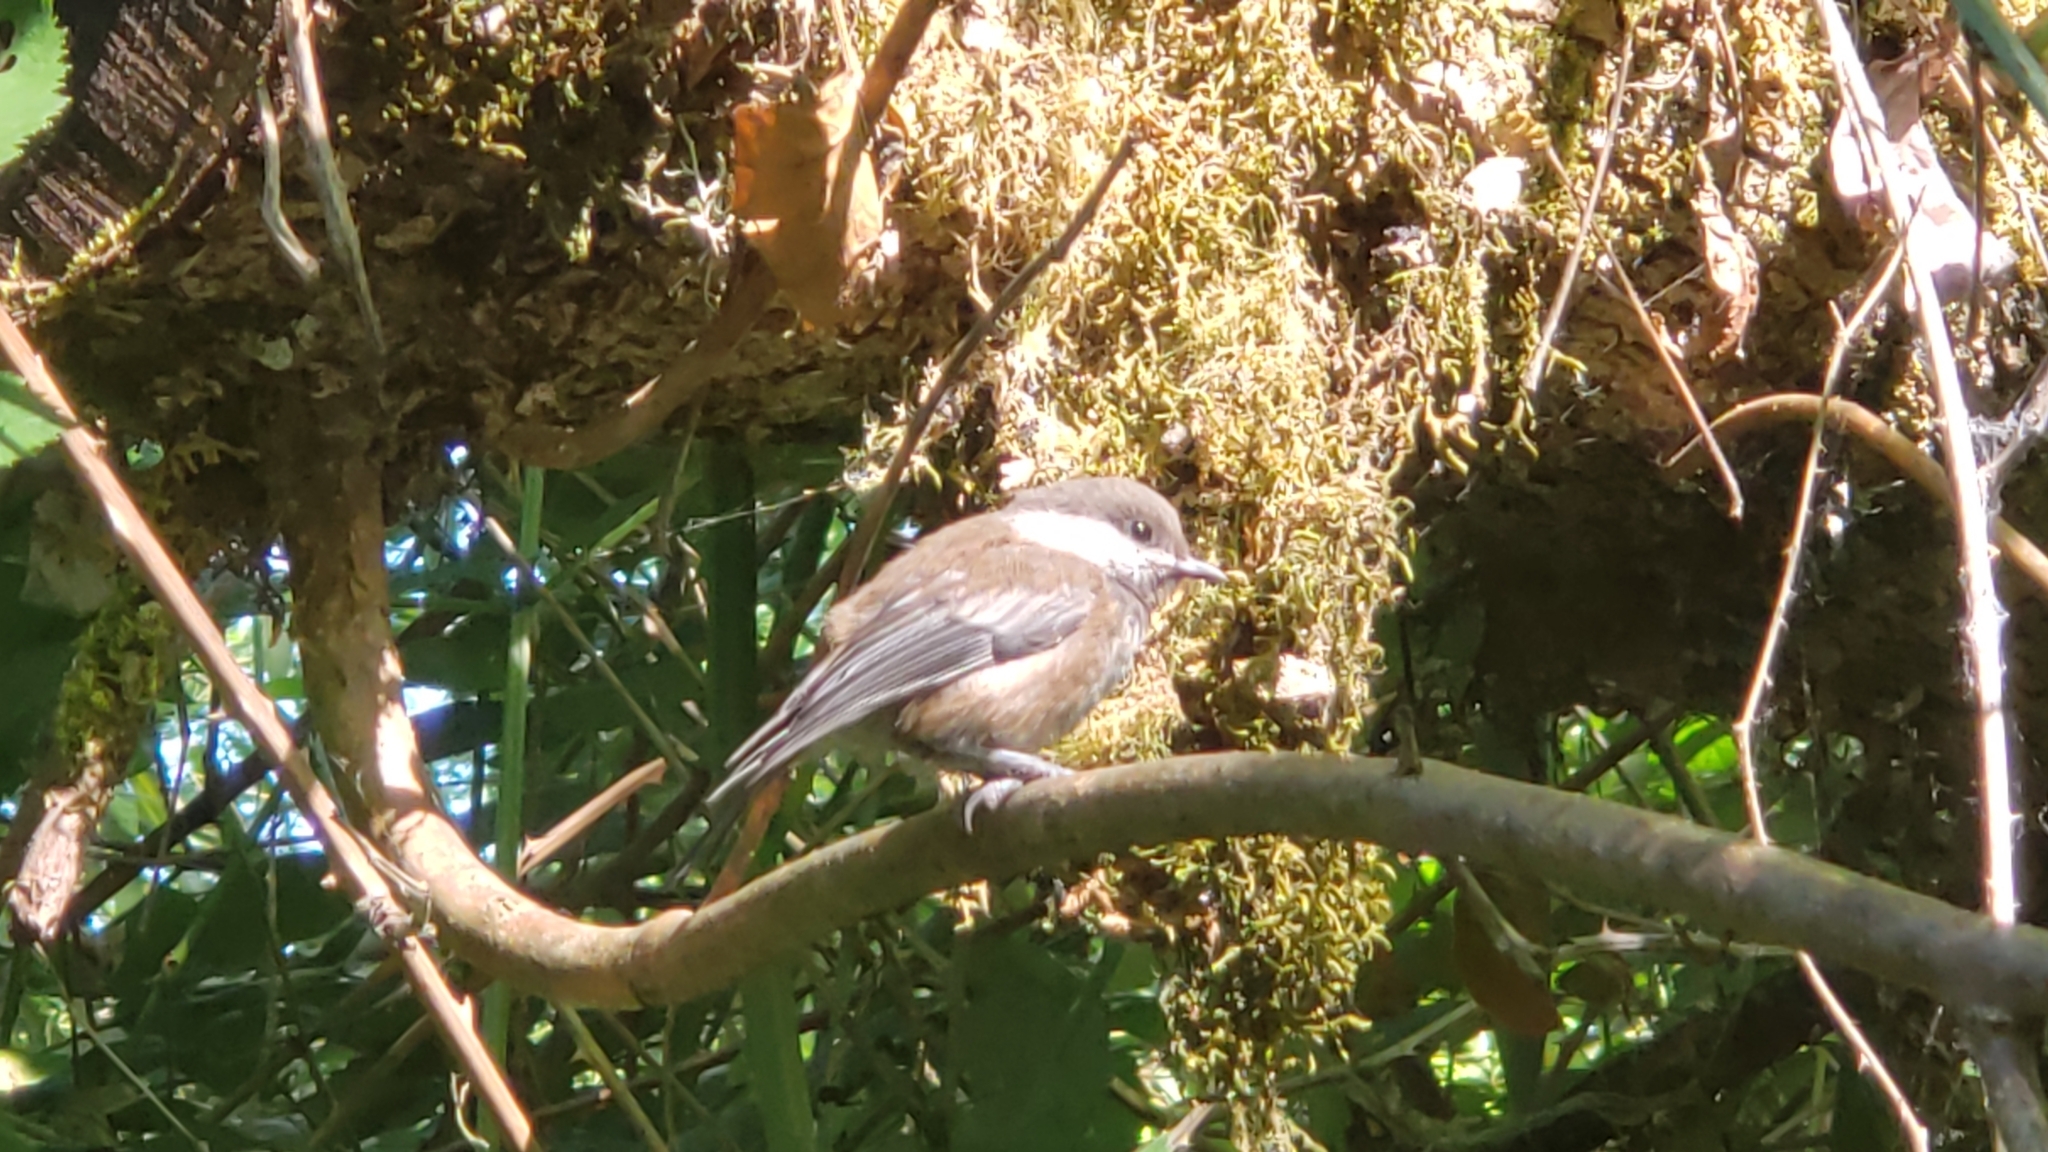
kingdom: Animalia
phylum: Chordata
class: Aves
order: Passeriformes
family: Paridae
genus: Poecile
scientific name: Poecile rufescens
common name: Chestnut-backed chickadee
